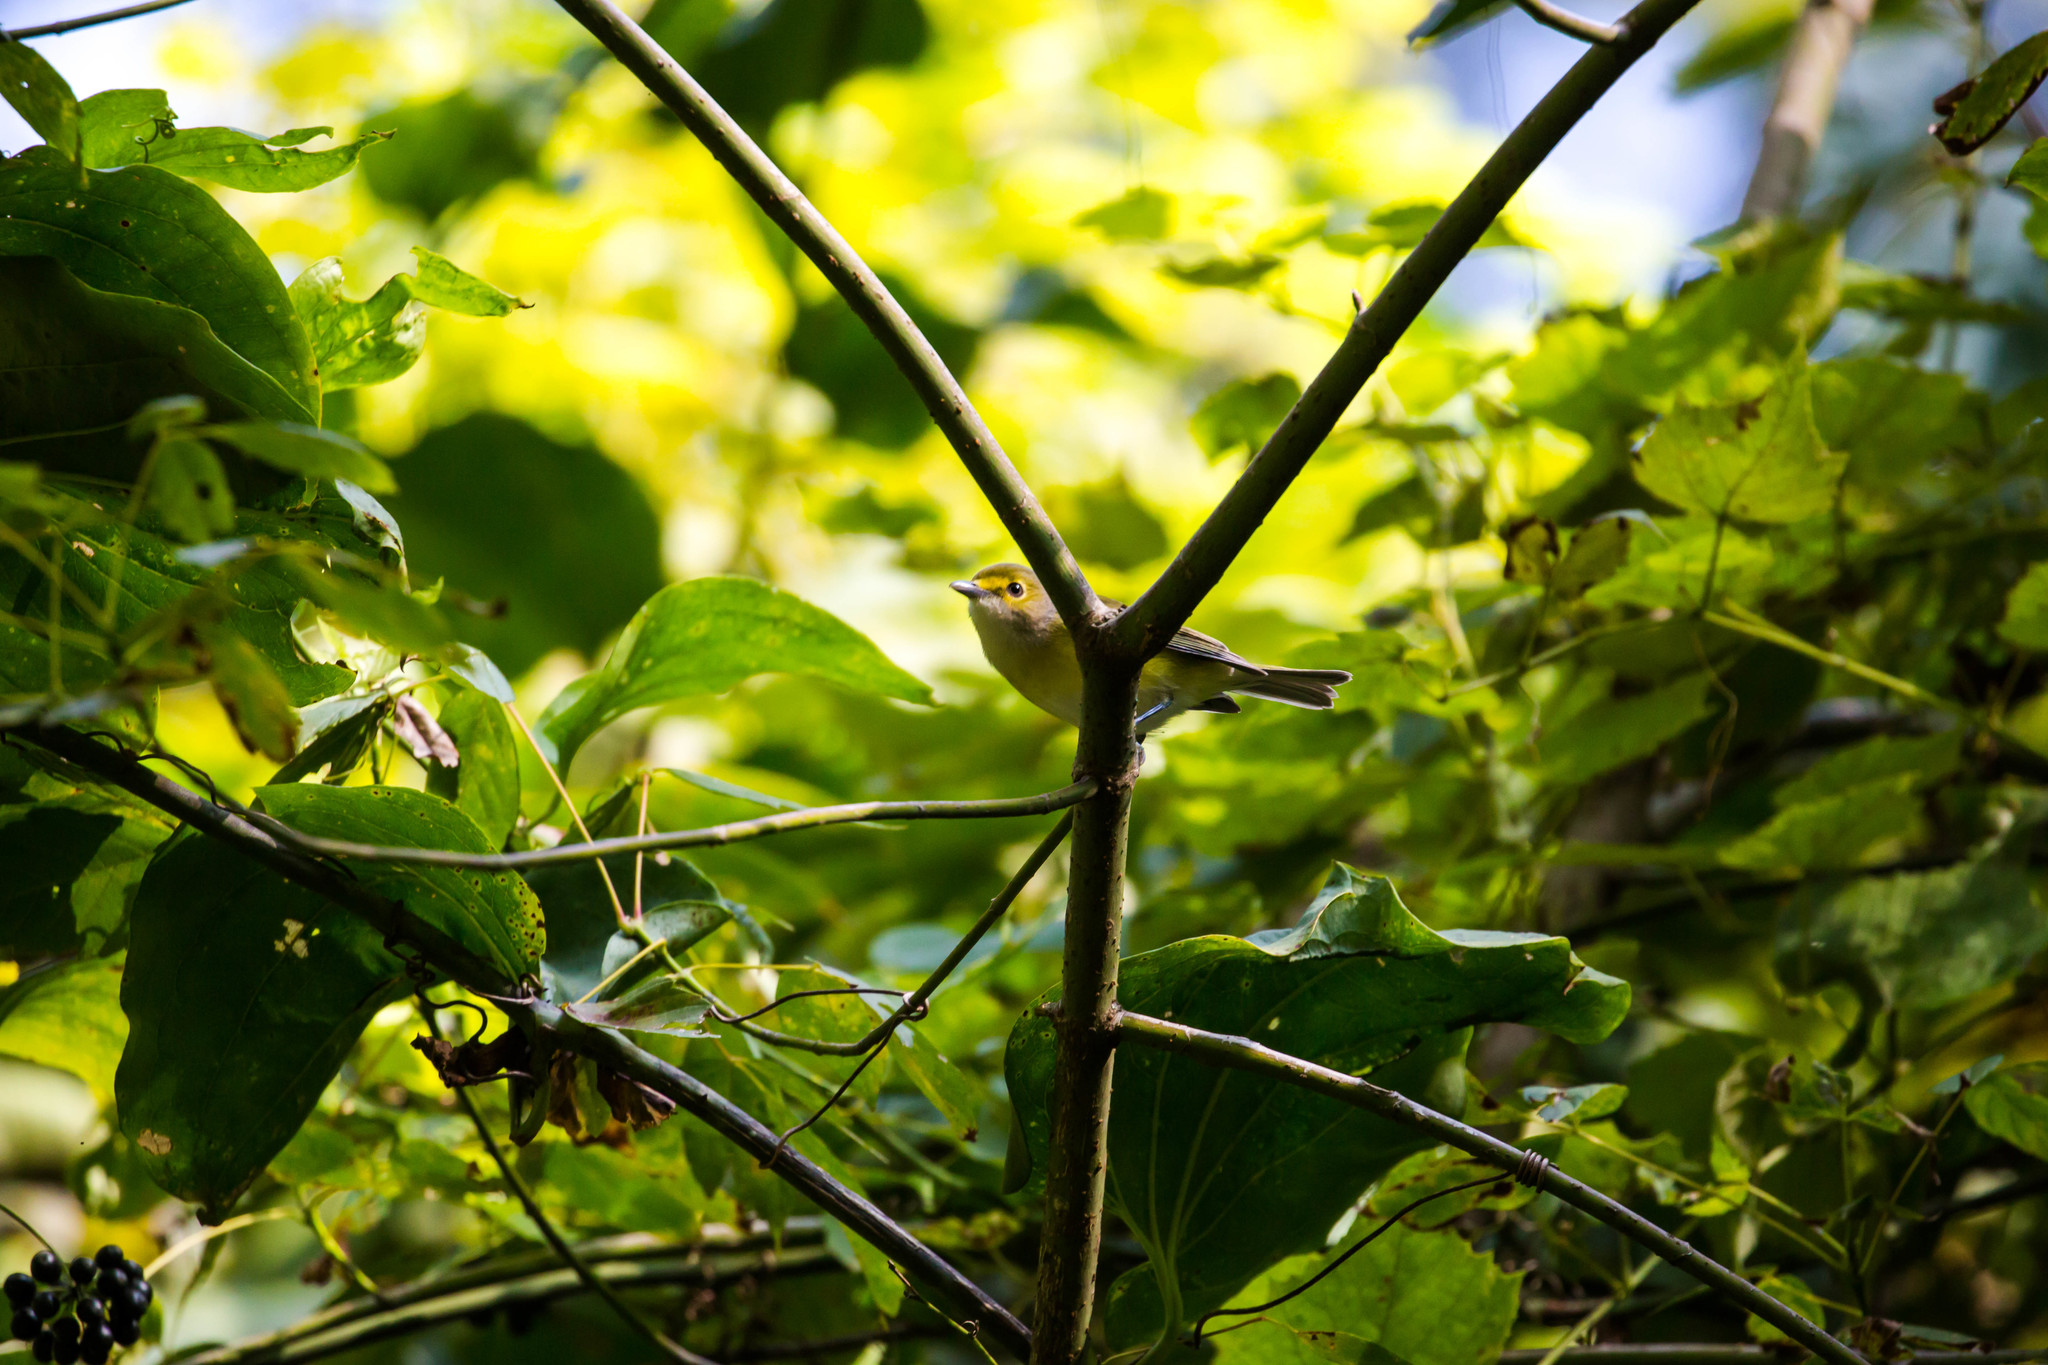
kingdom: Animalia
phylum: Chordata
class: Aves
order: Passeriformes
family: Vireonidae
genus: Vireo
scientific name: Vireo griseus
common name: White-eyed vireo
